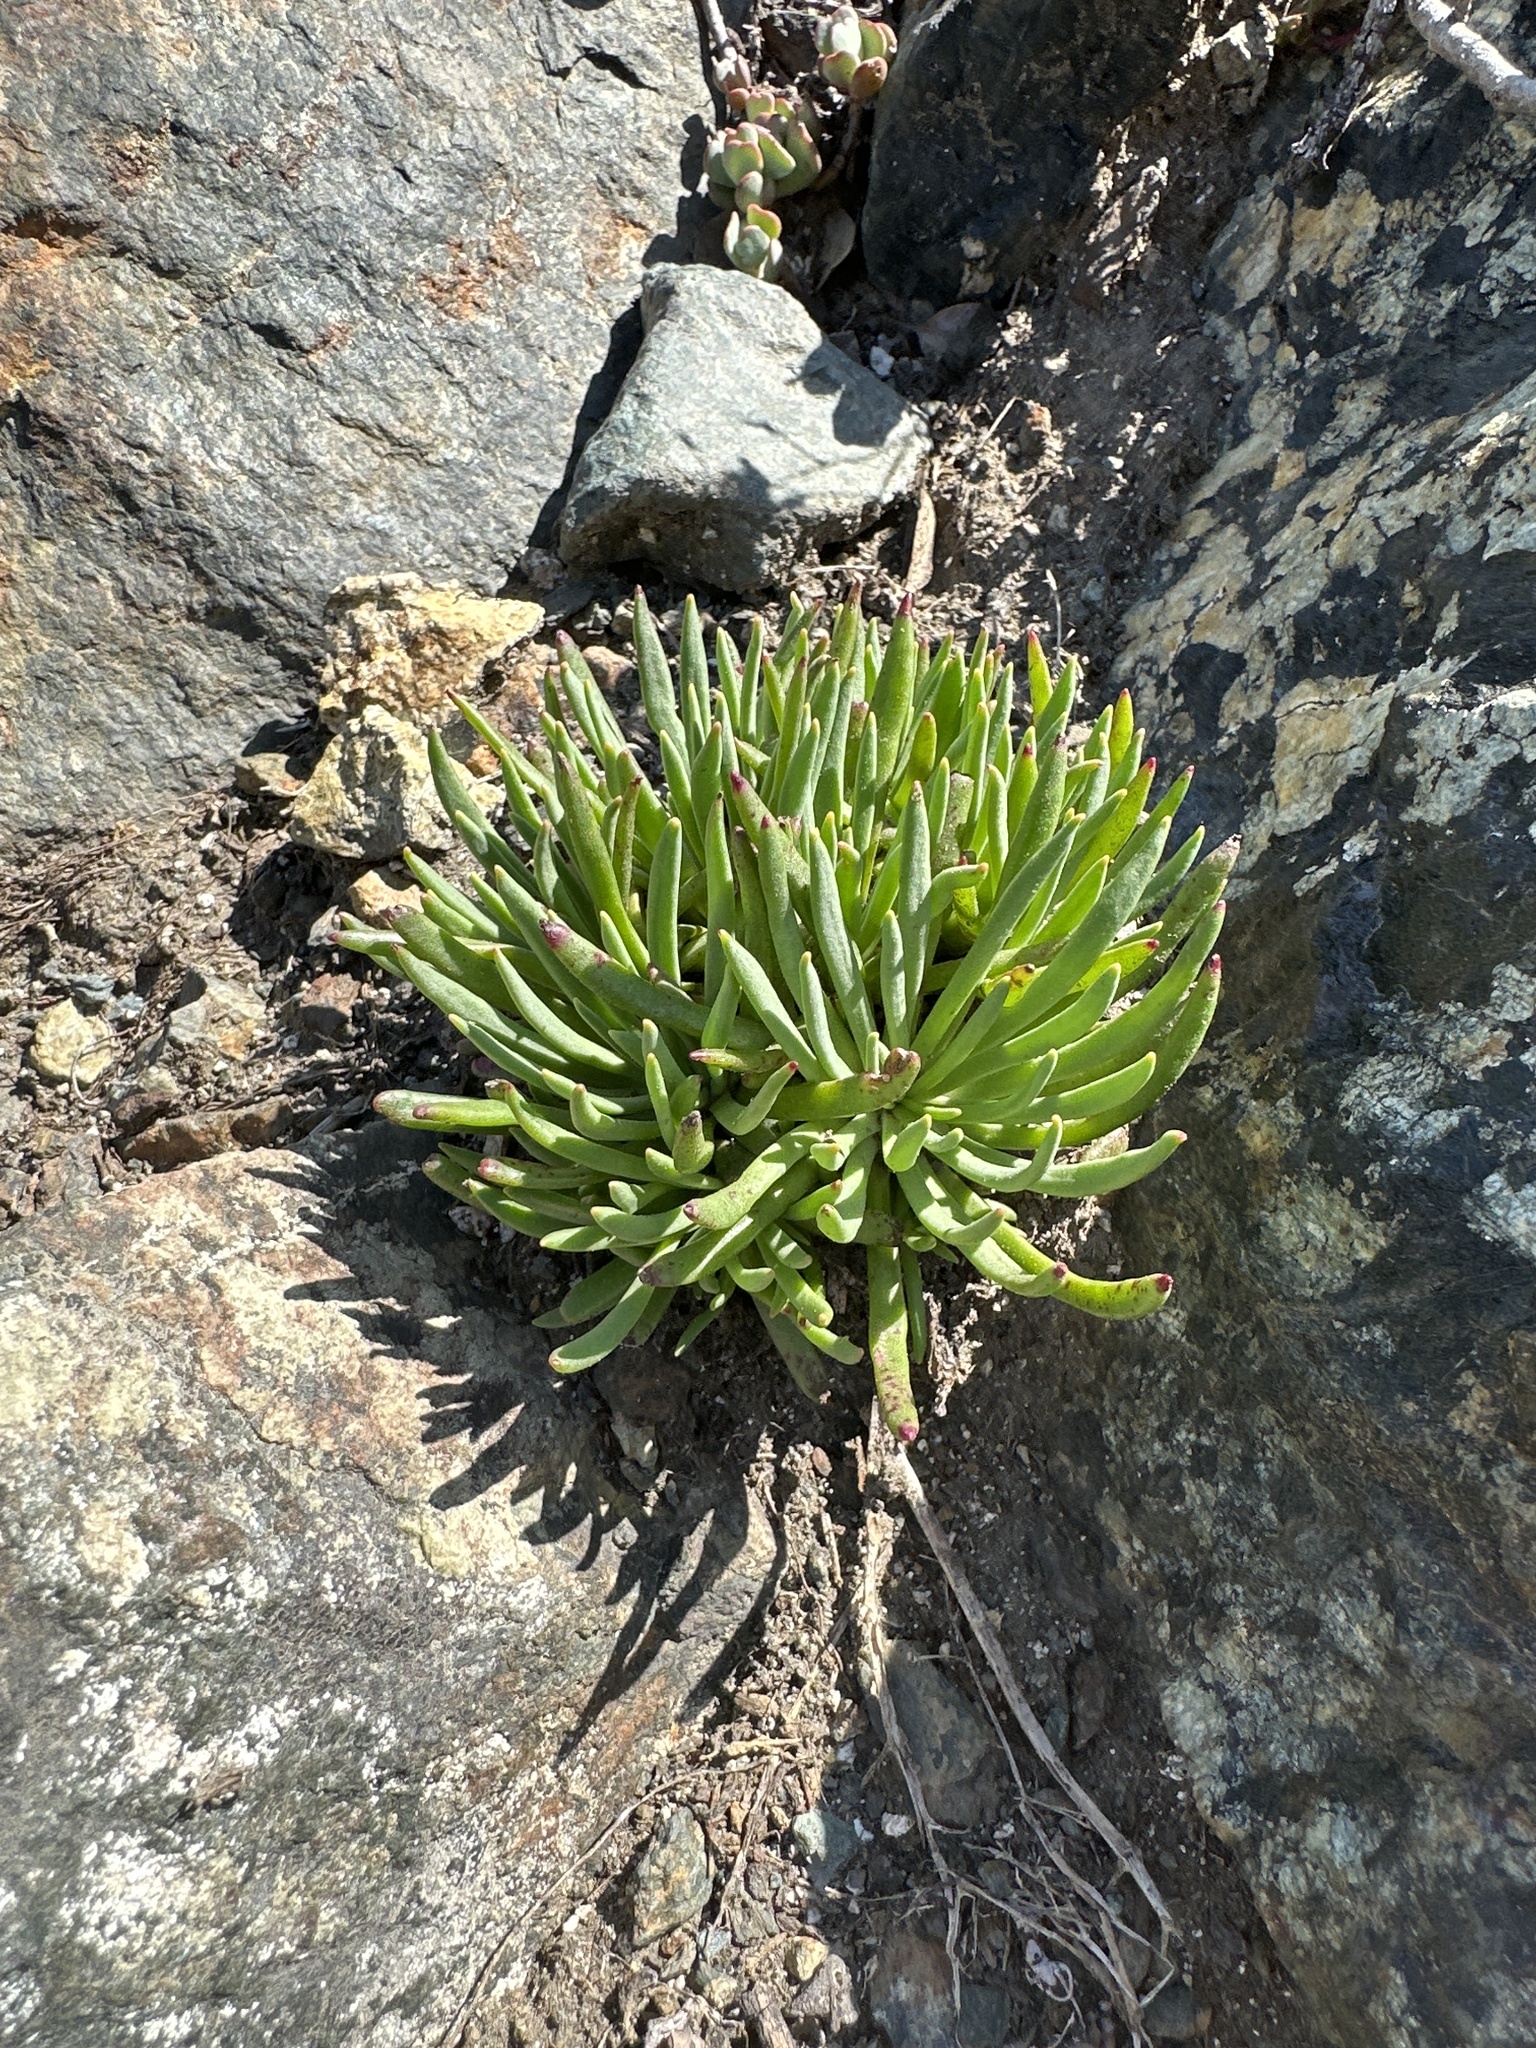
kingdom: Plantae
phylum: Tracheophyta
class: Magnoliopsida
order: Caryophyllales
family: Montiaceae
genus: Lewisia
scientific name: Lewisia leeana
